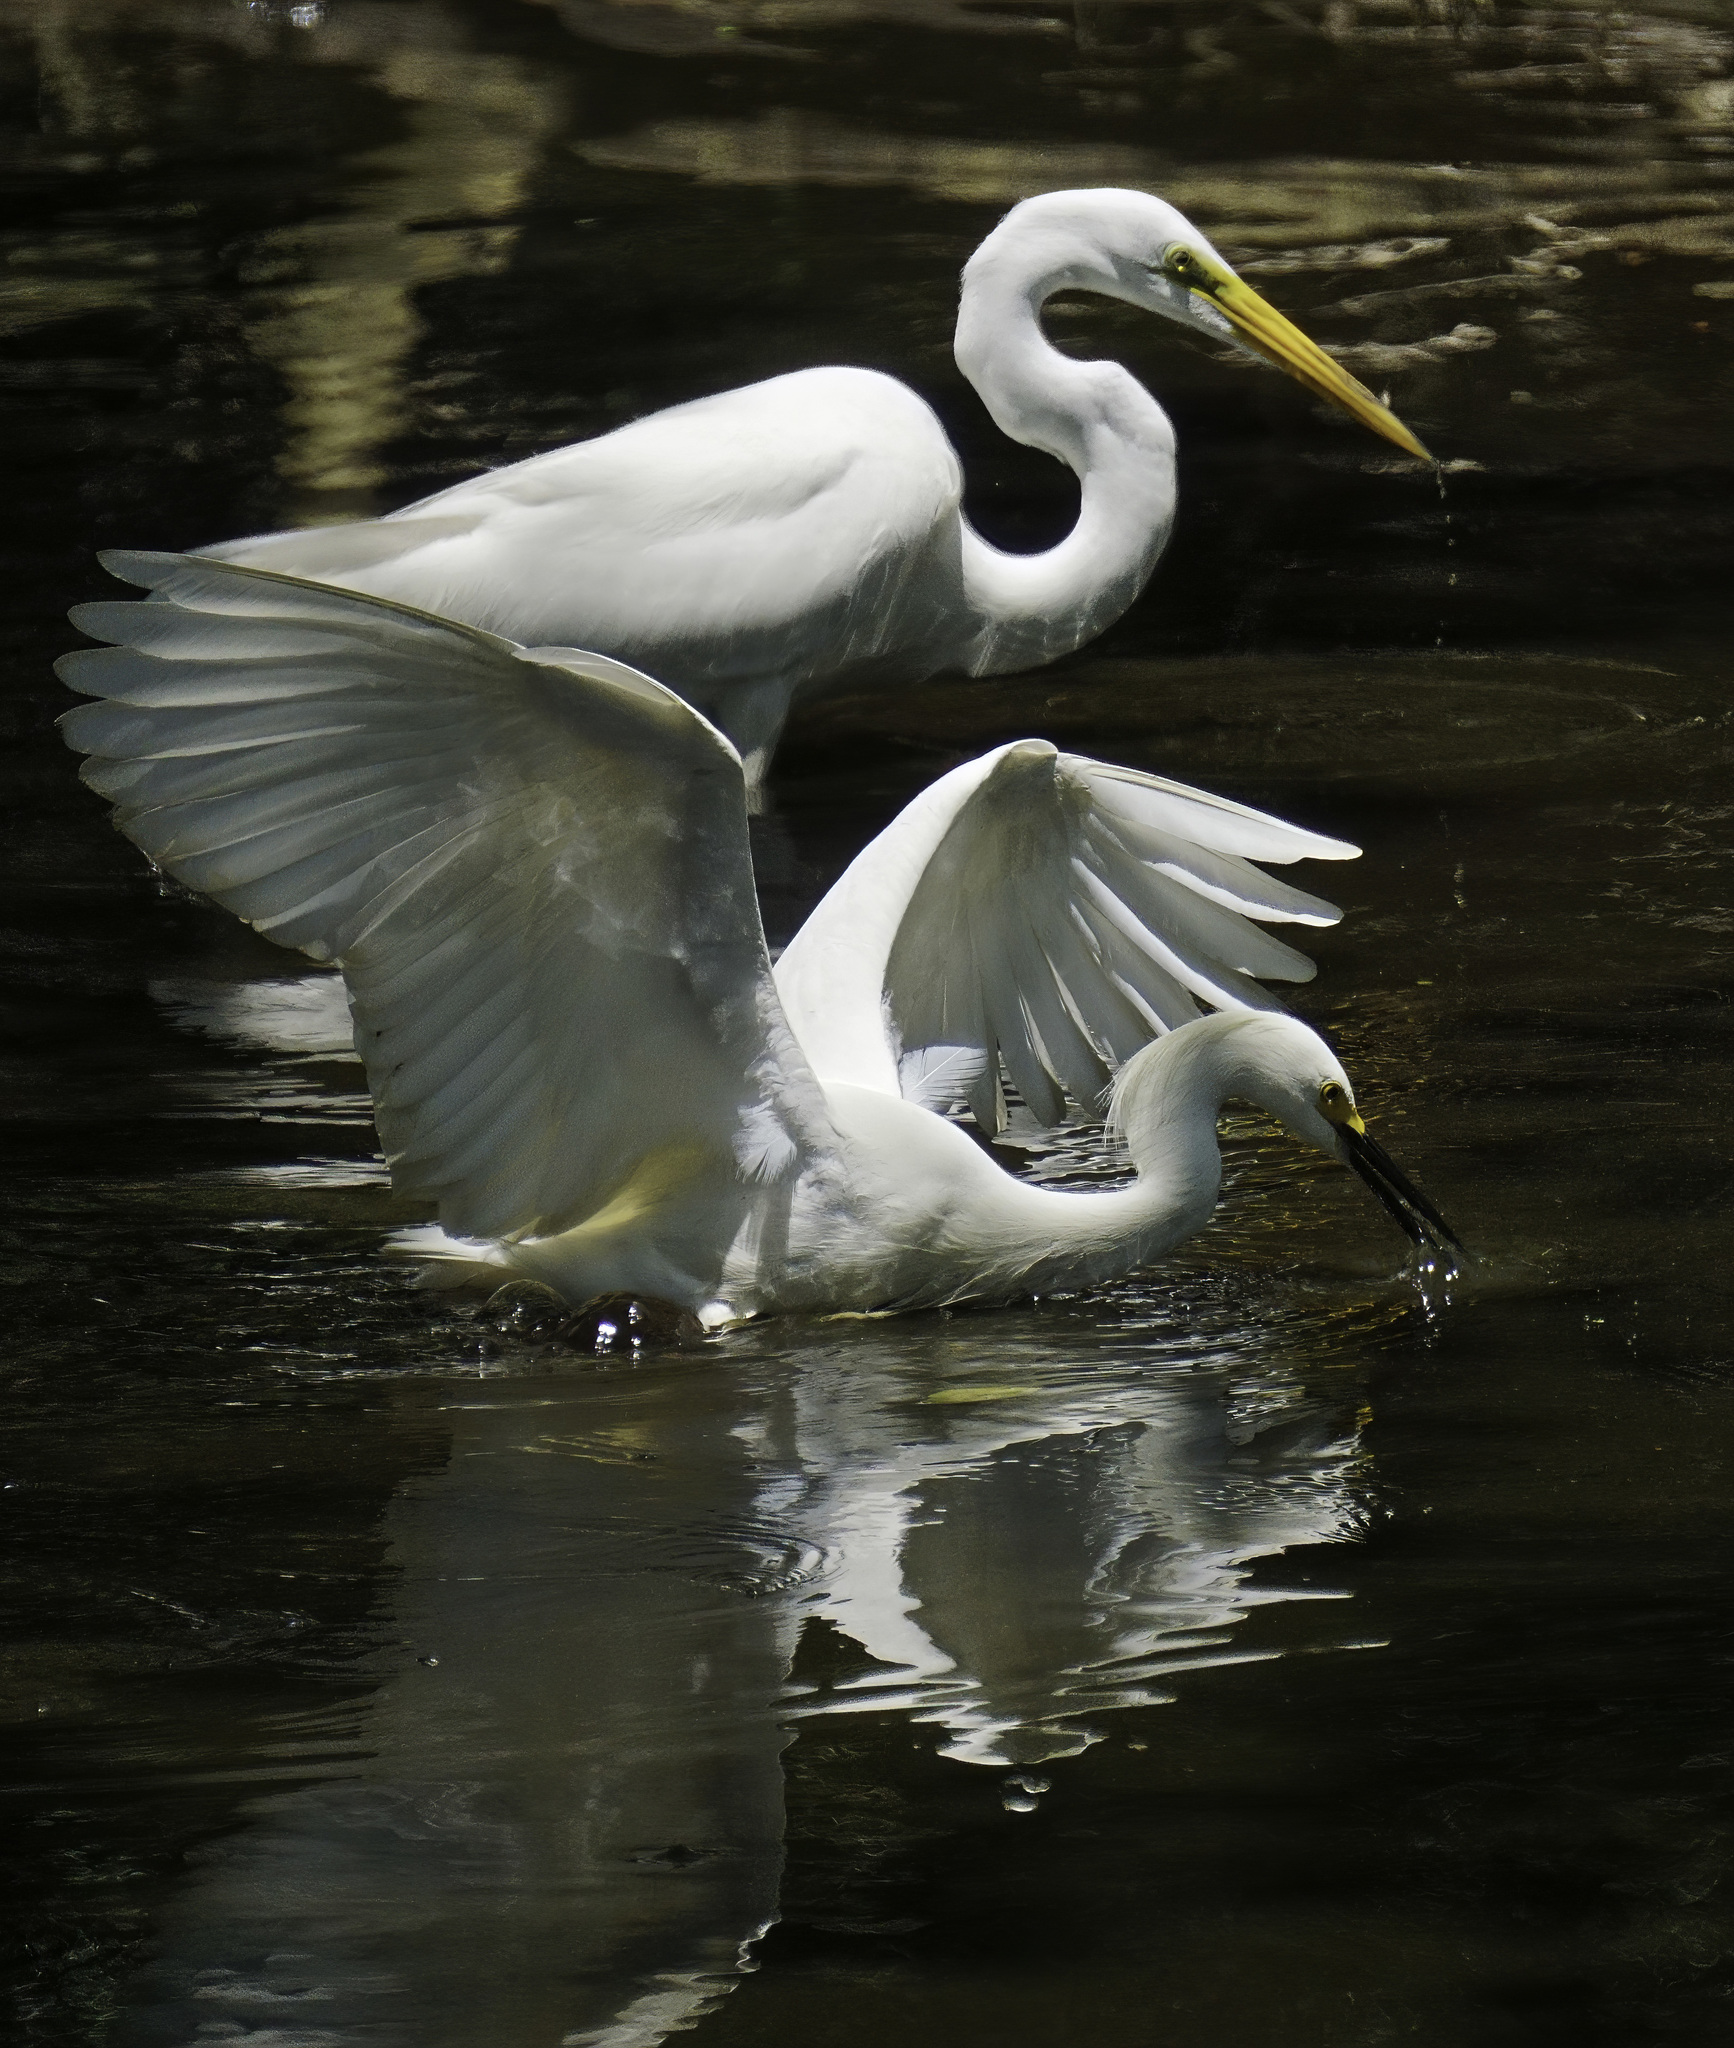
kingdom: Animalia
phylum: Chordata
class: Aves
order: Pelecaniformes
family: Ardeidae
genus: Egretta
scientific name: Egretta thula
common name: Snowy egret
